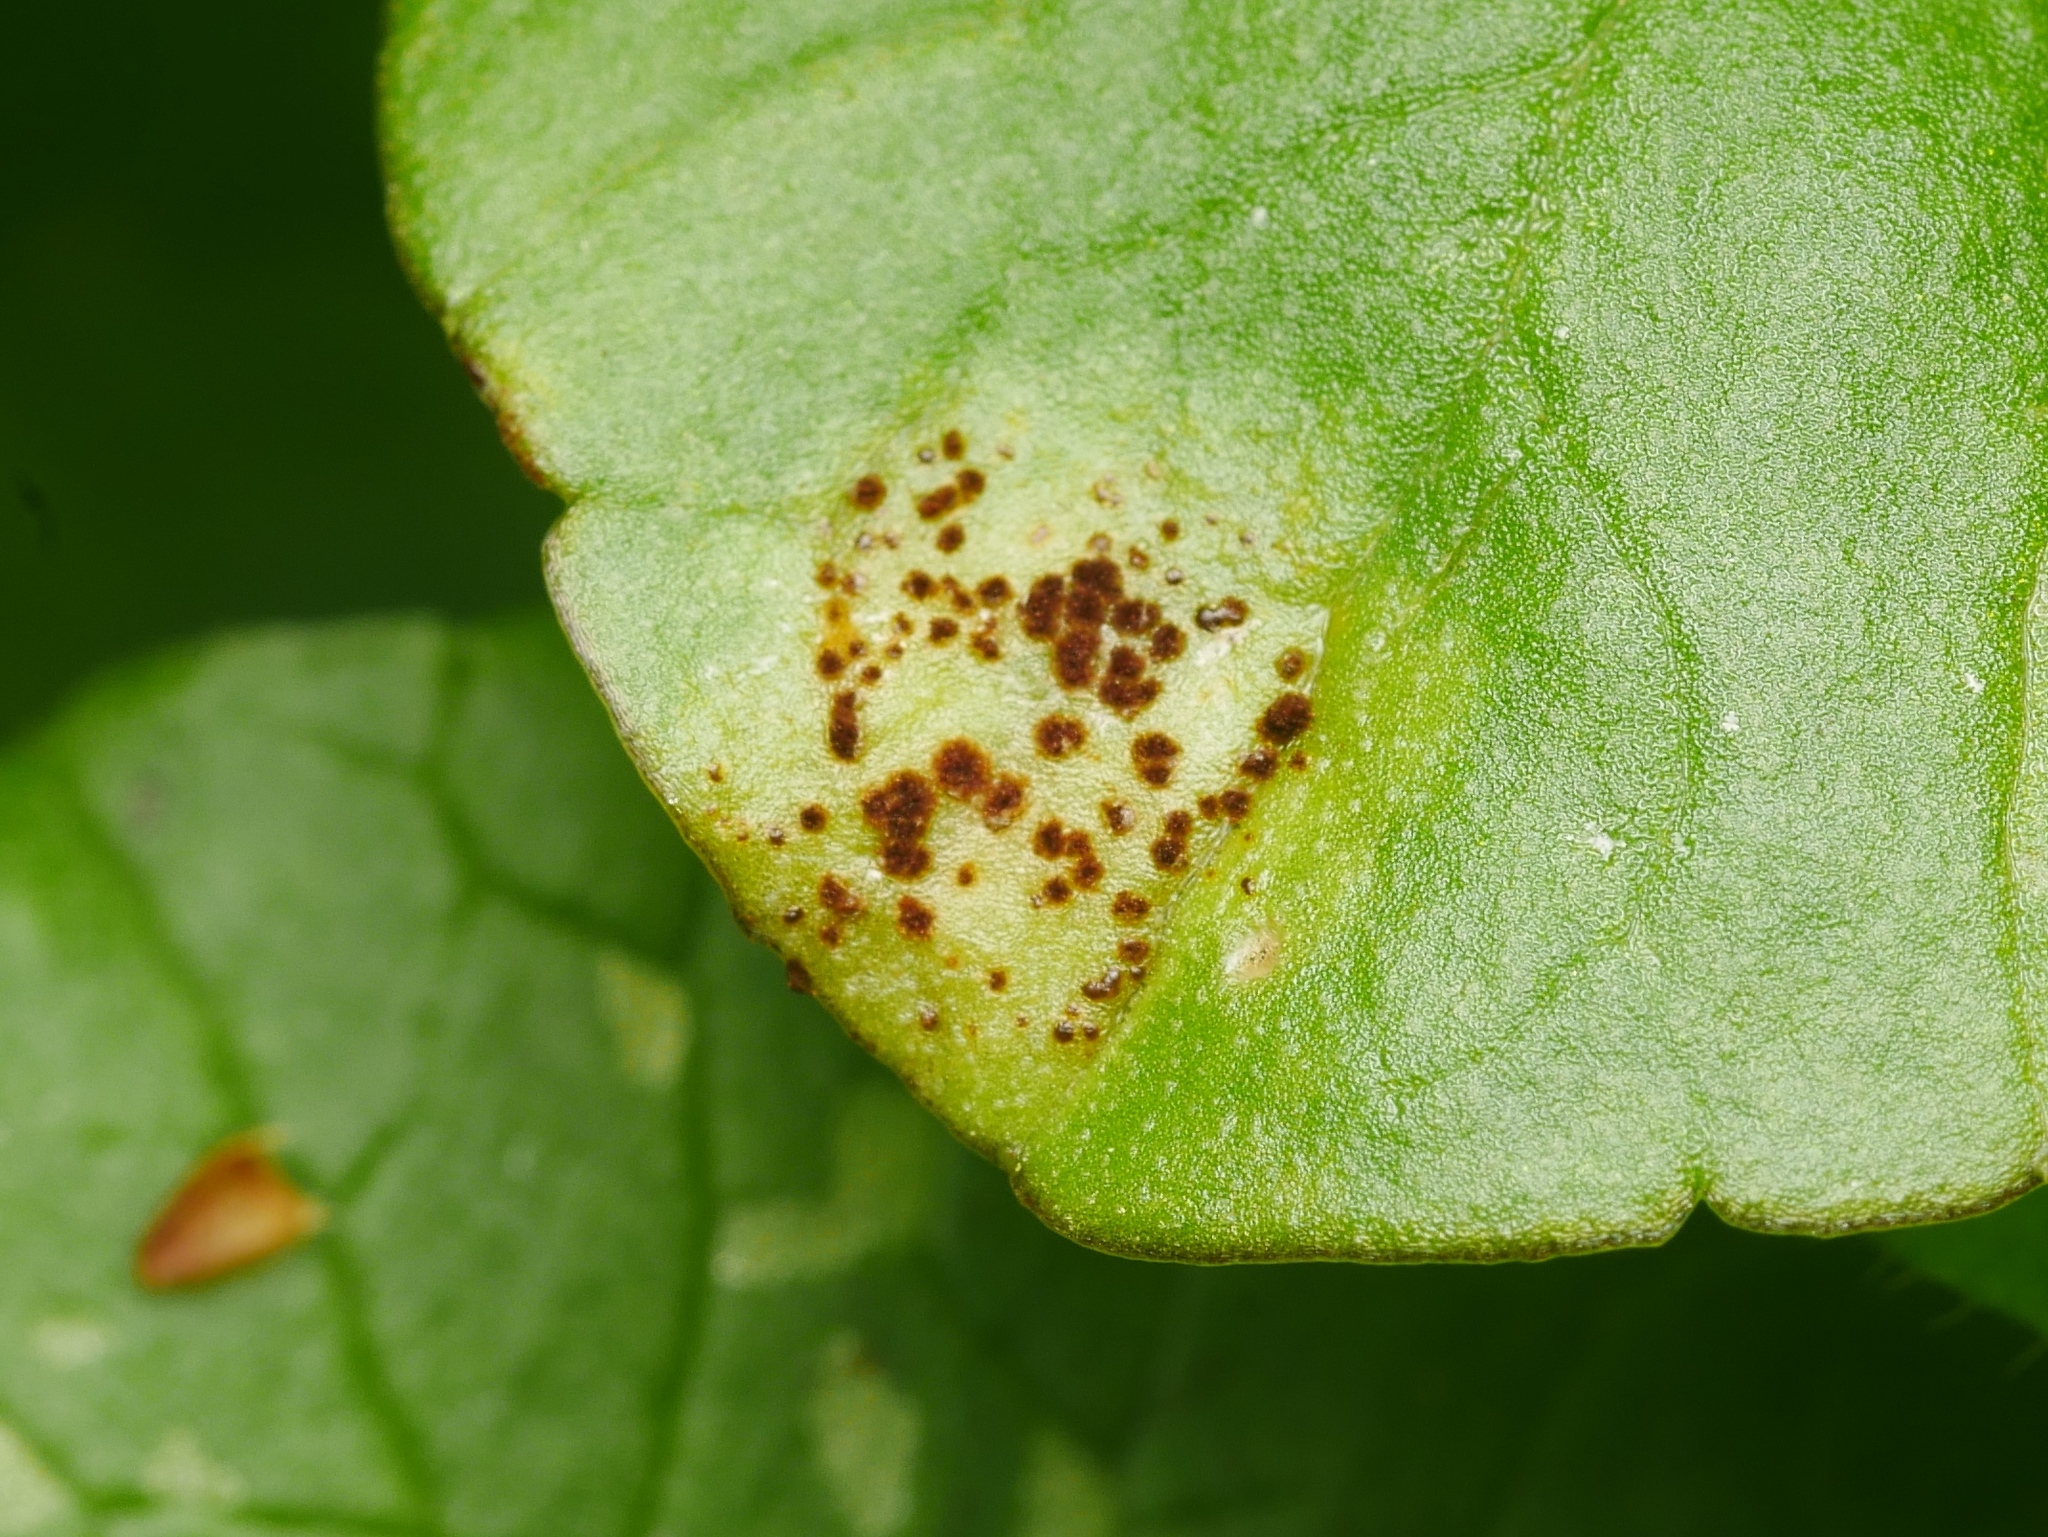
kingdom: Fungi
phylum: Basidiomycota
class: Pucciniomycetes
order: Pucciniales
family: Pucciniaceae
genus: Uromyces
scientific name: Uromyces ficariae
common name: Bitter chocolate rust
